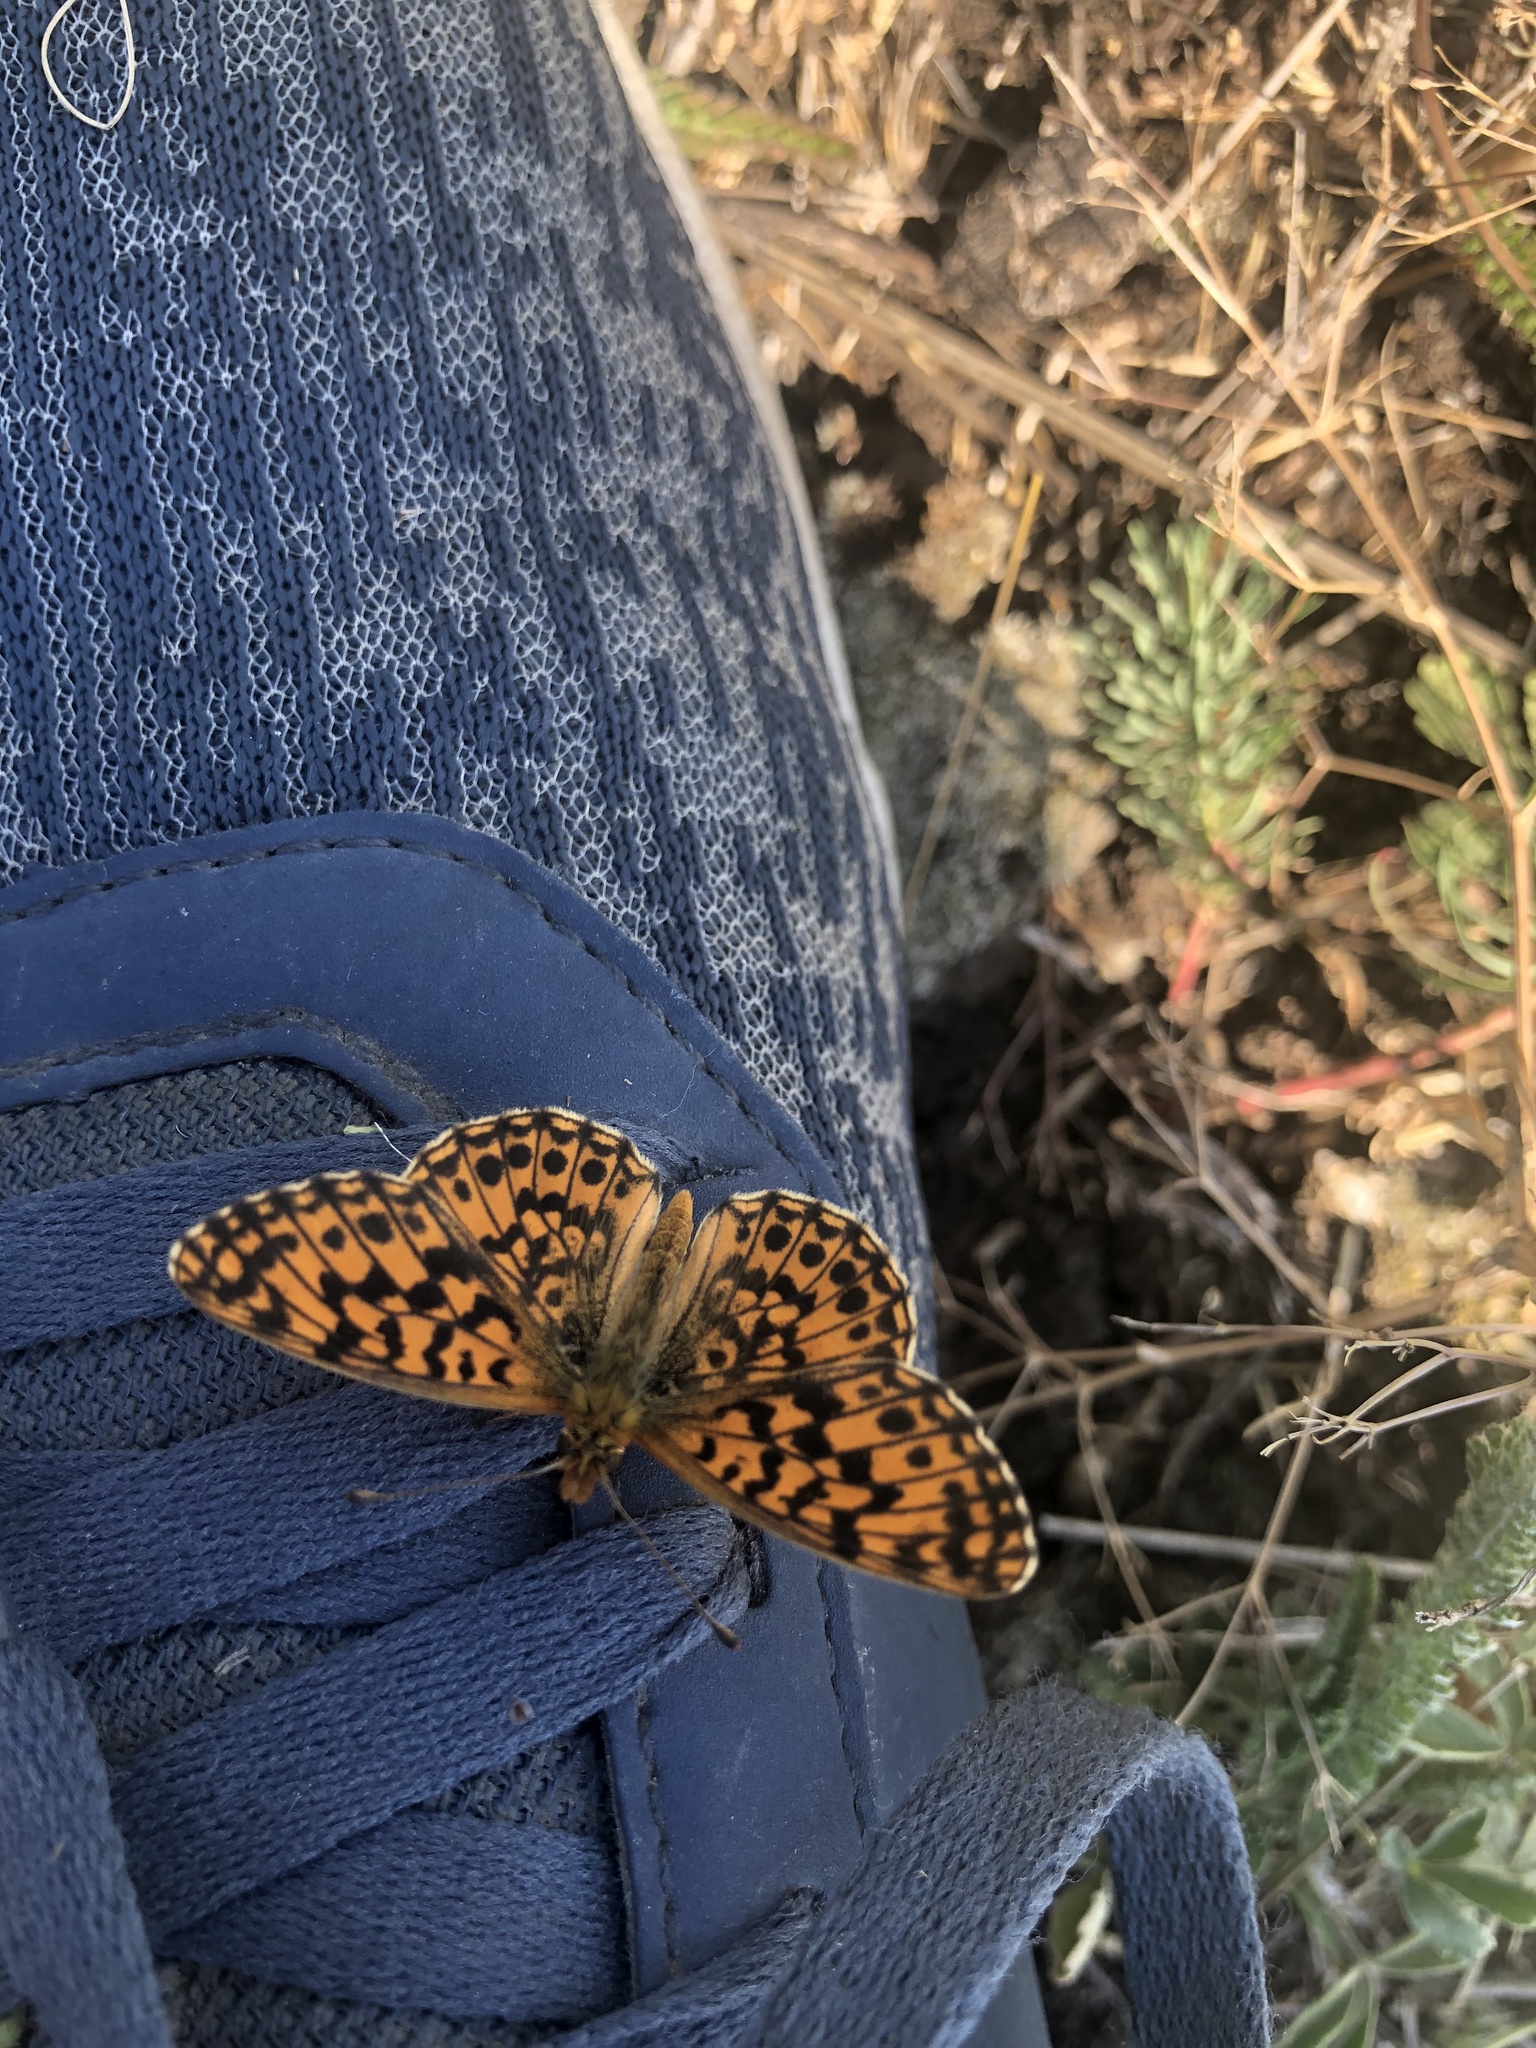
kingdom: Animalia
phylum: Arthropoda
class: Insecta
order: Lepidoptera
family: Nymphalidae
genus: Boloria
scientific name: Boloria dia
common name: Weaver's fritillary
